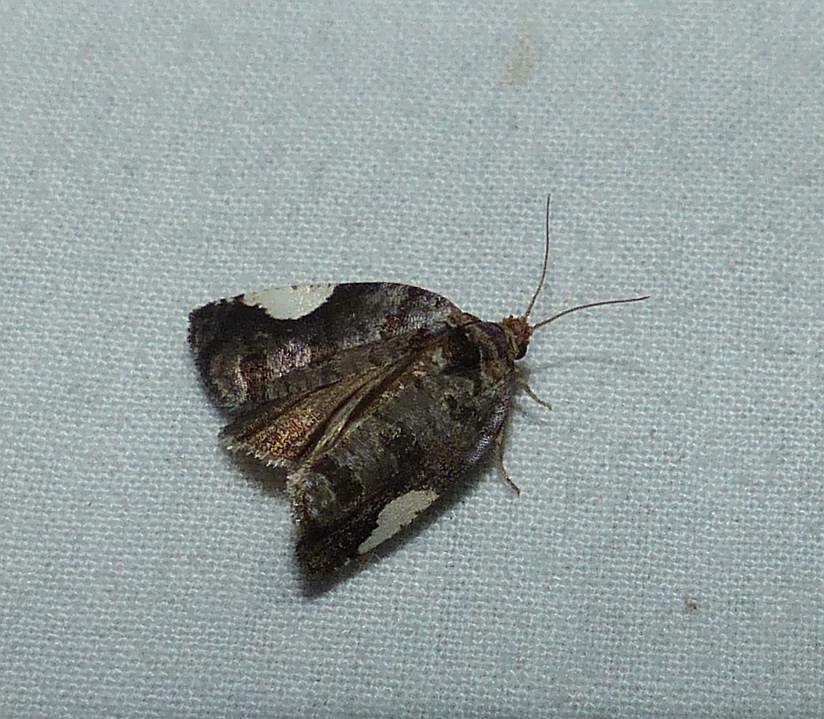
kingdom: Animalia
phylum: Arthropoda
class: Insecta
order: Lepidoptera
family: Tortricidae
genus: Hedya
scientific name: Hedya chionosema
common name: White-spotted hedya moth
